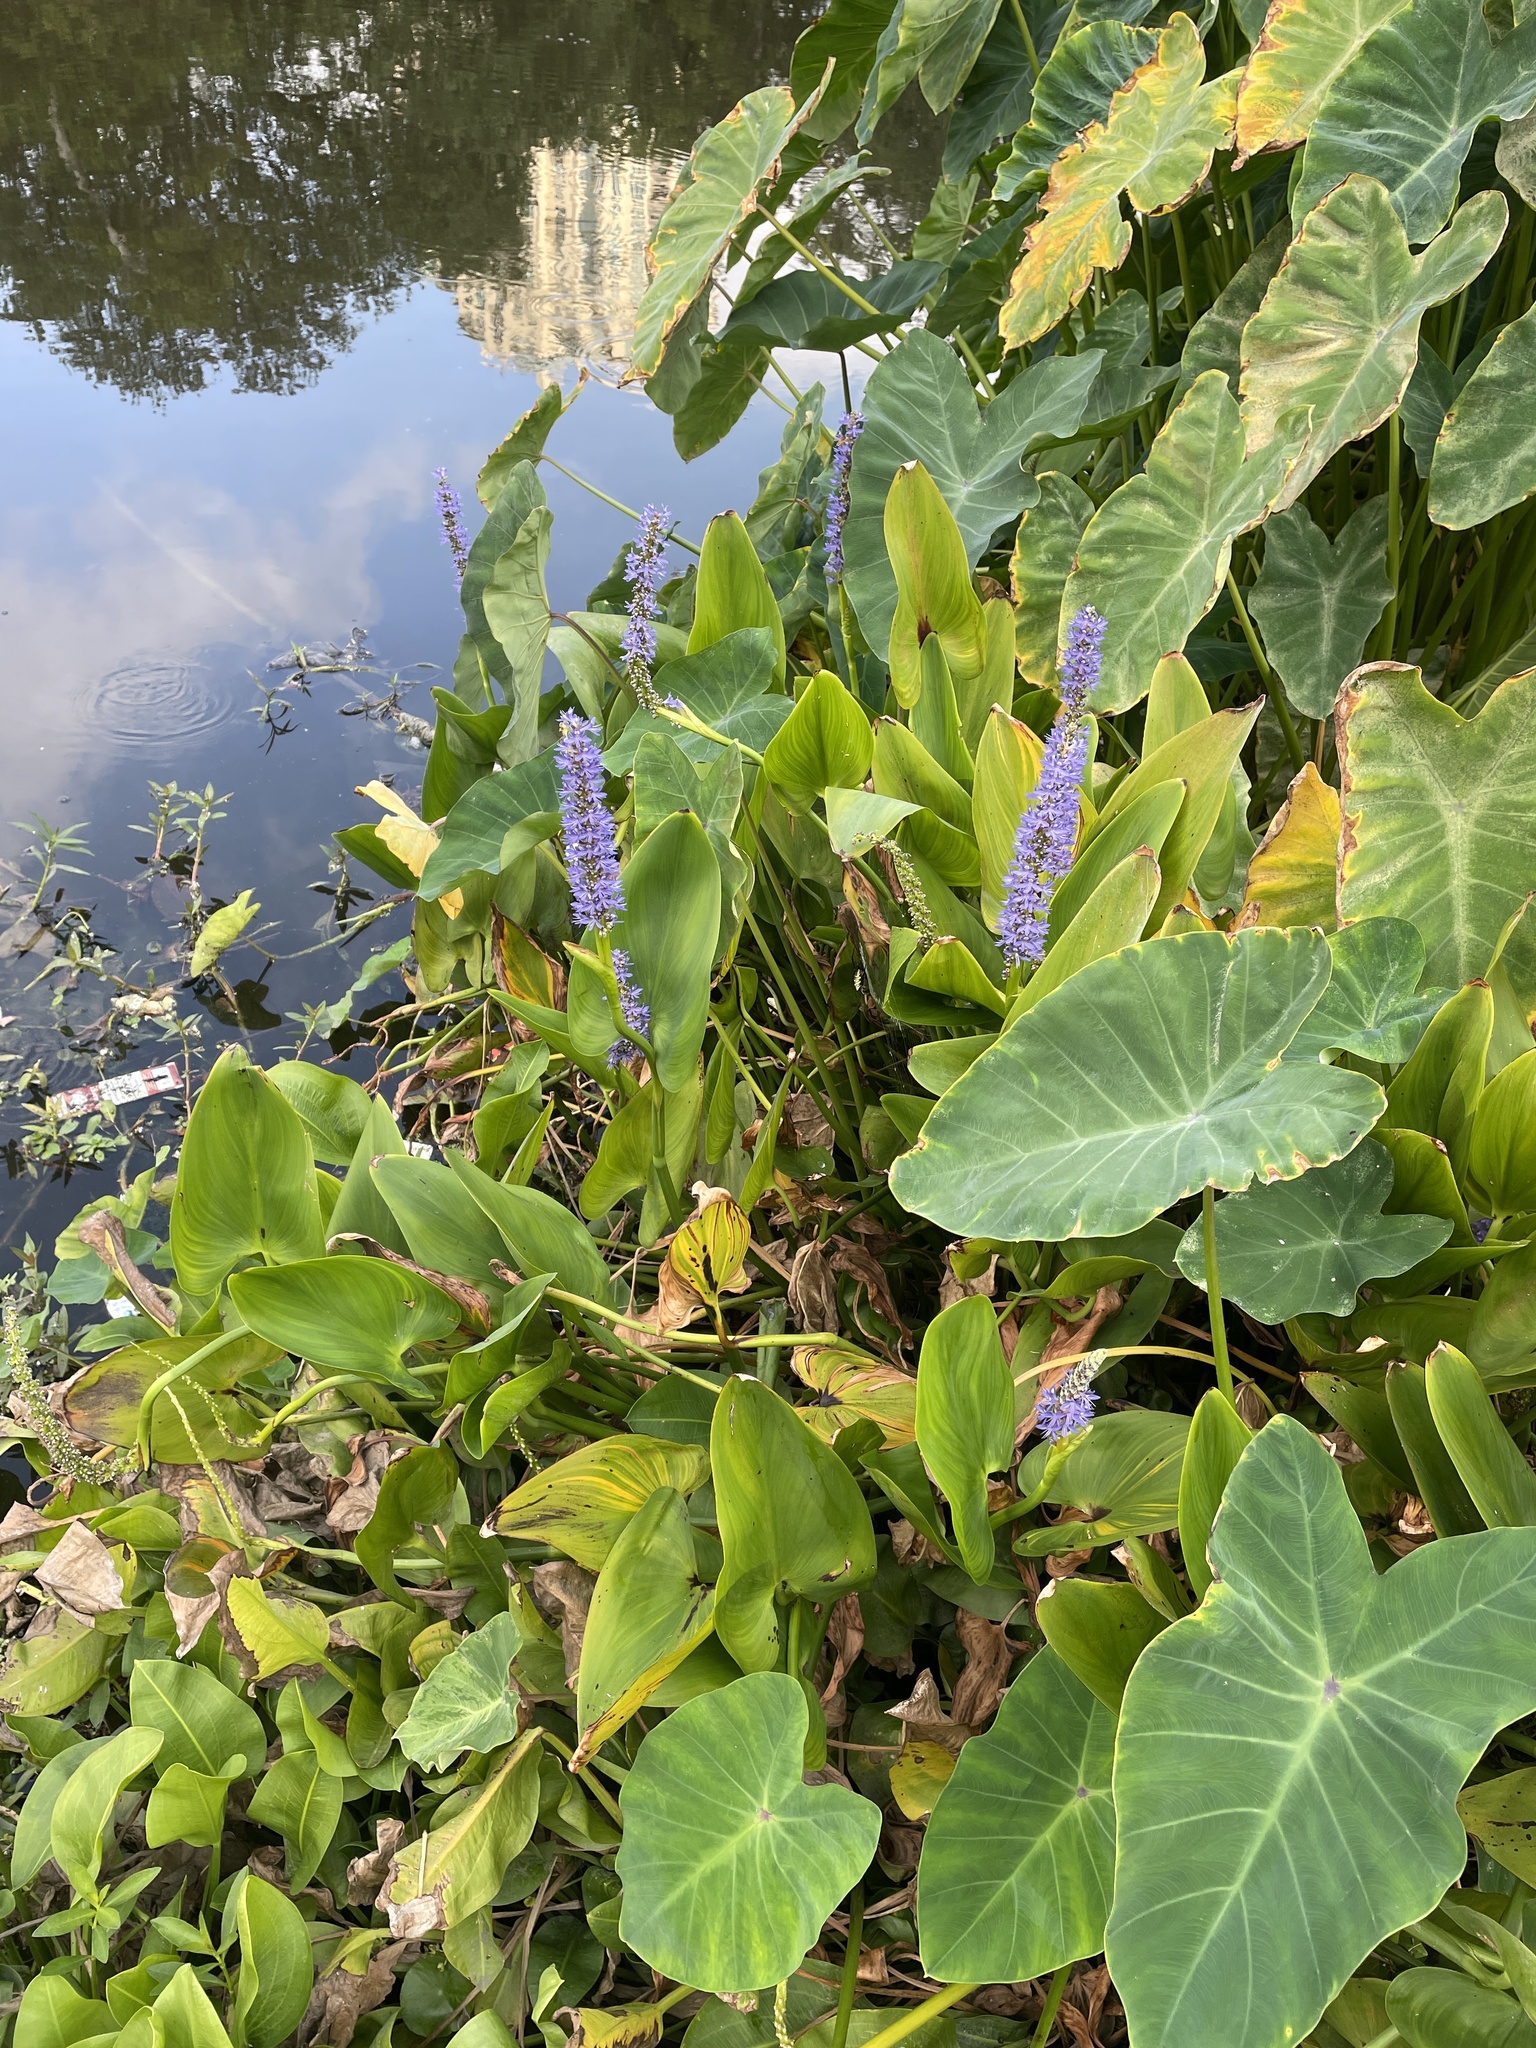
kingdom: Plantae
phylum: Tracheophyta
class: Liliopsida
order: Commelinales
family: Pontederiaceae
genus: Pontederia
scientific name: Pontederia cordata
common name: Pickerelweed
